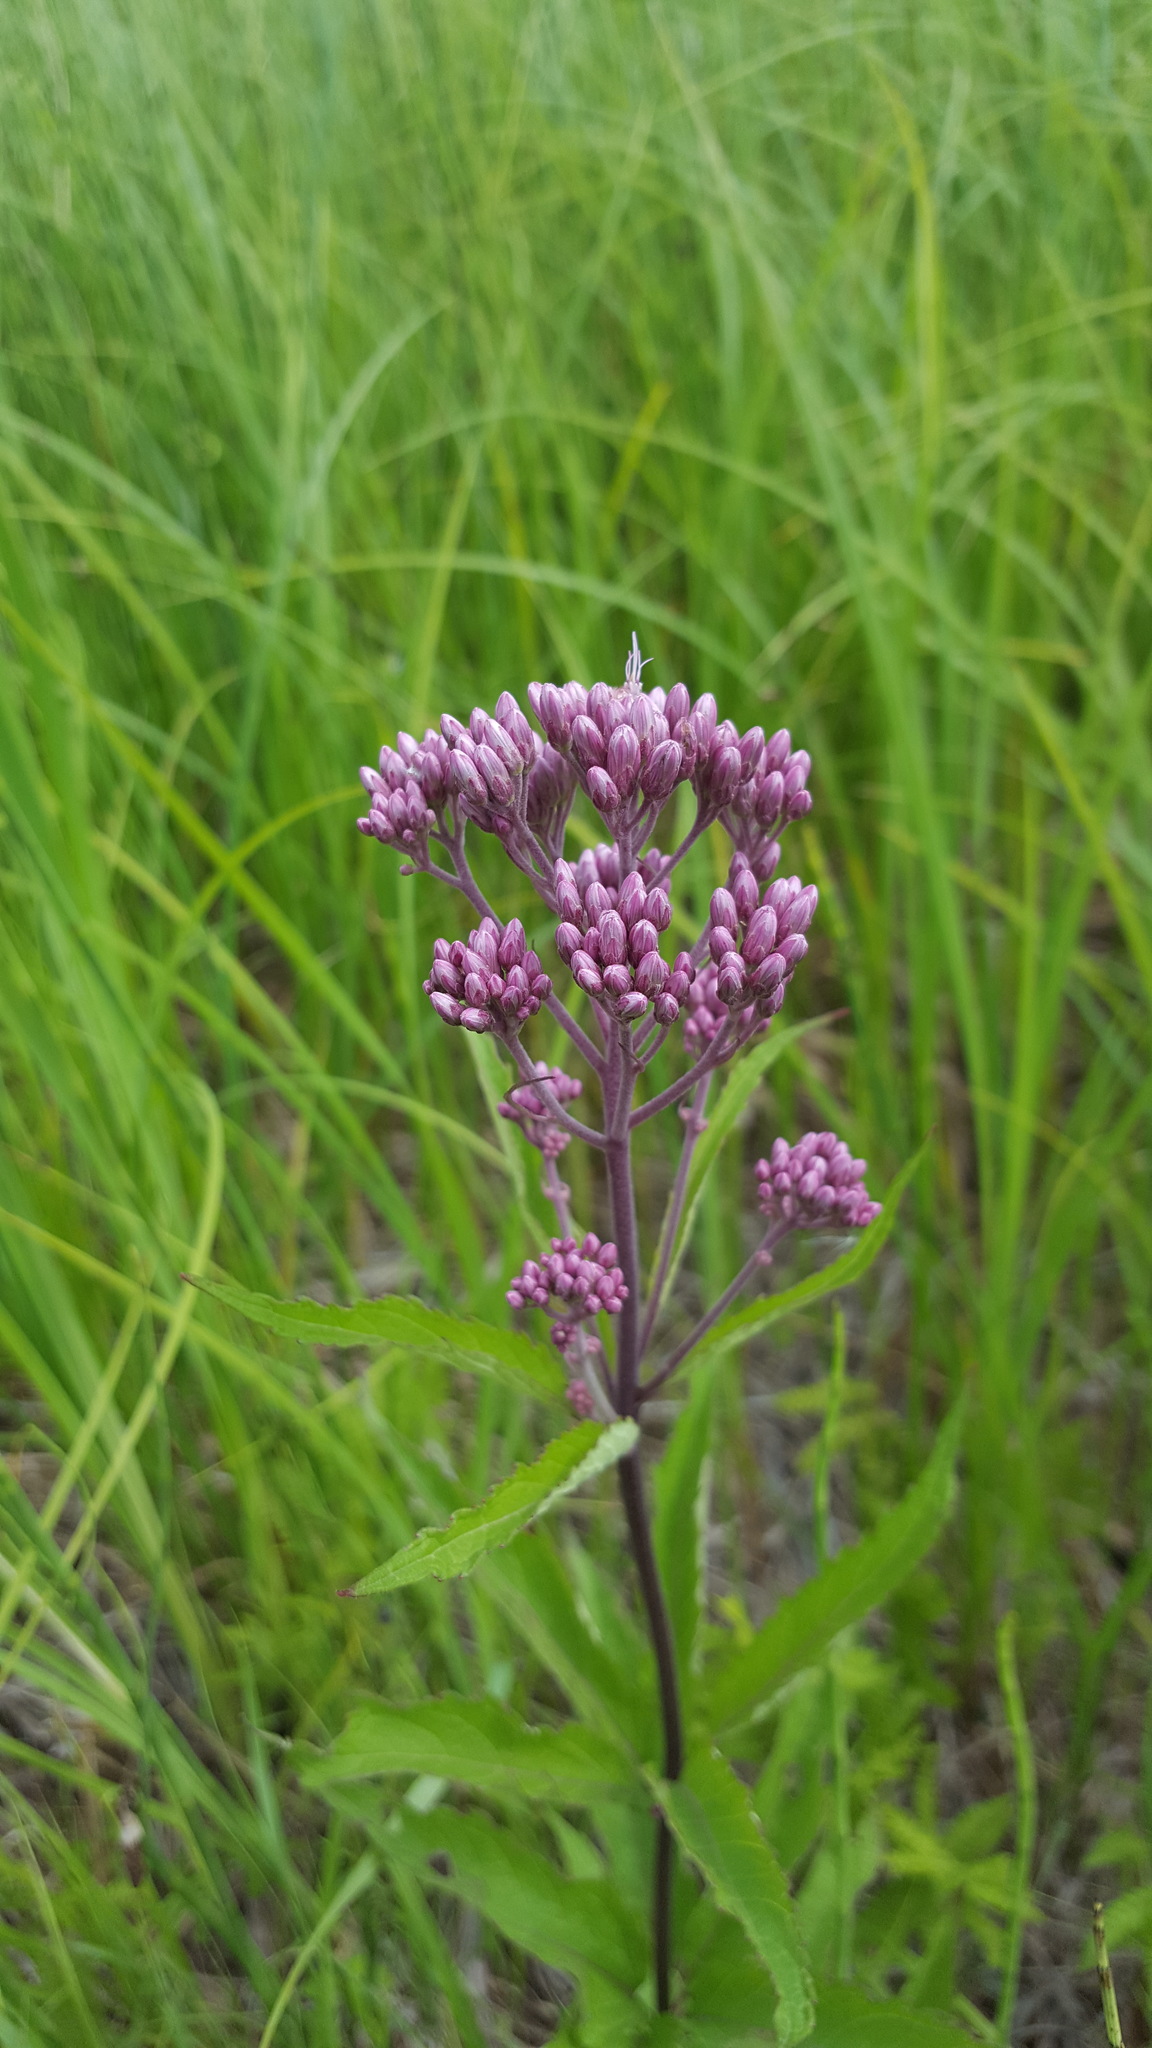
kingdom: Plantae
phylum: Tracheophyta
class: Magnoliopsida
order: Asterales
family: Asteraceae
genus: Eutrochium
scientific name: Eutrochium maculatum
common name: Spotted joe pye weed
